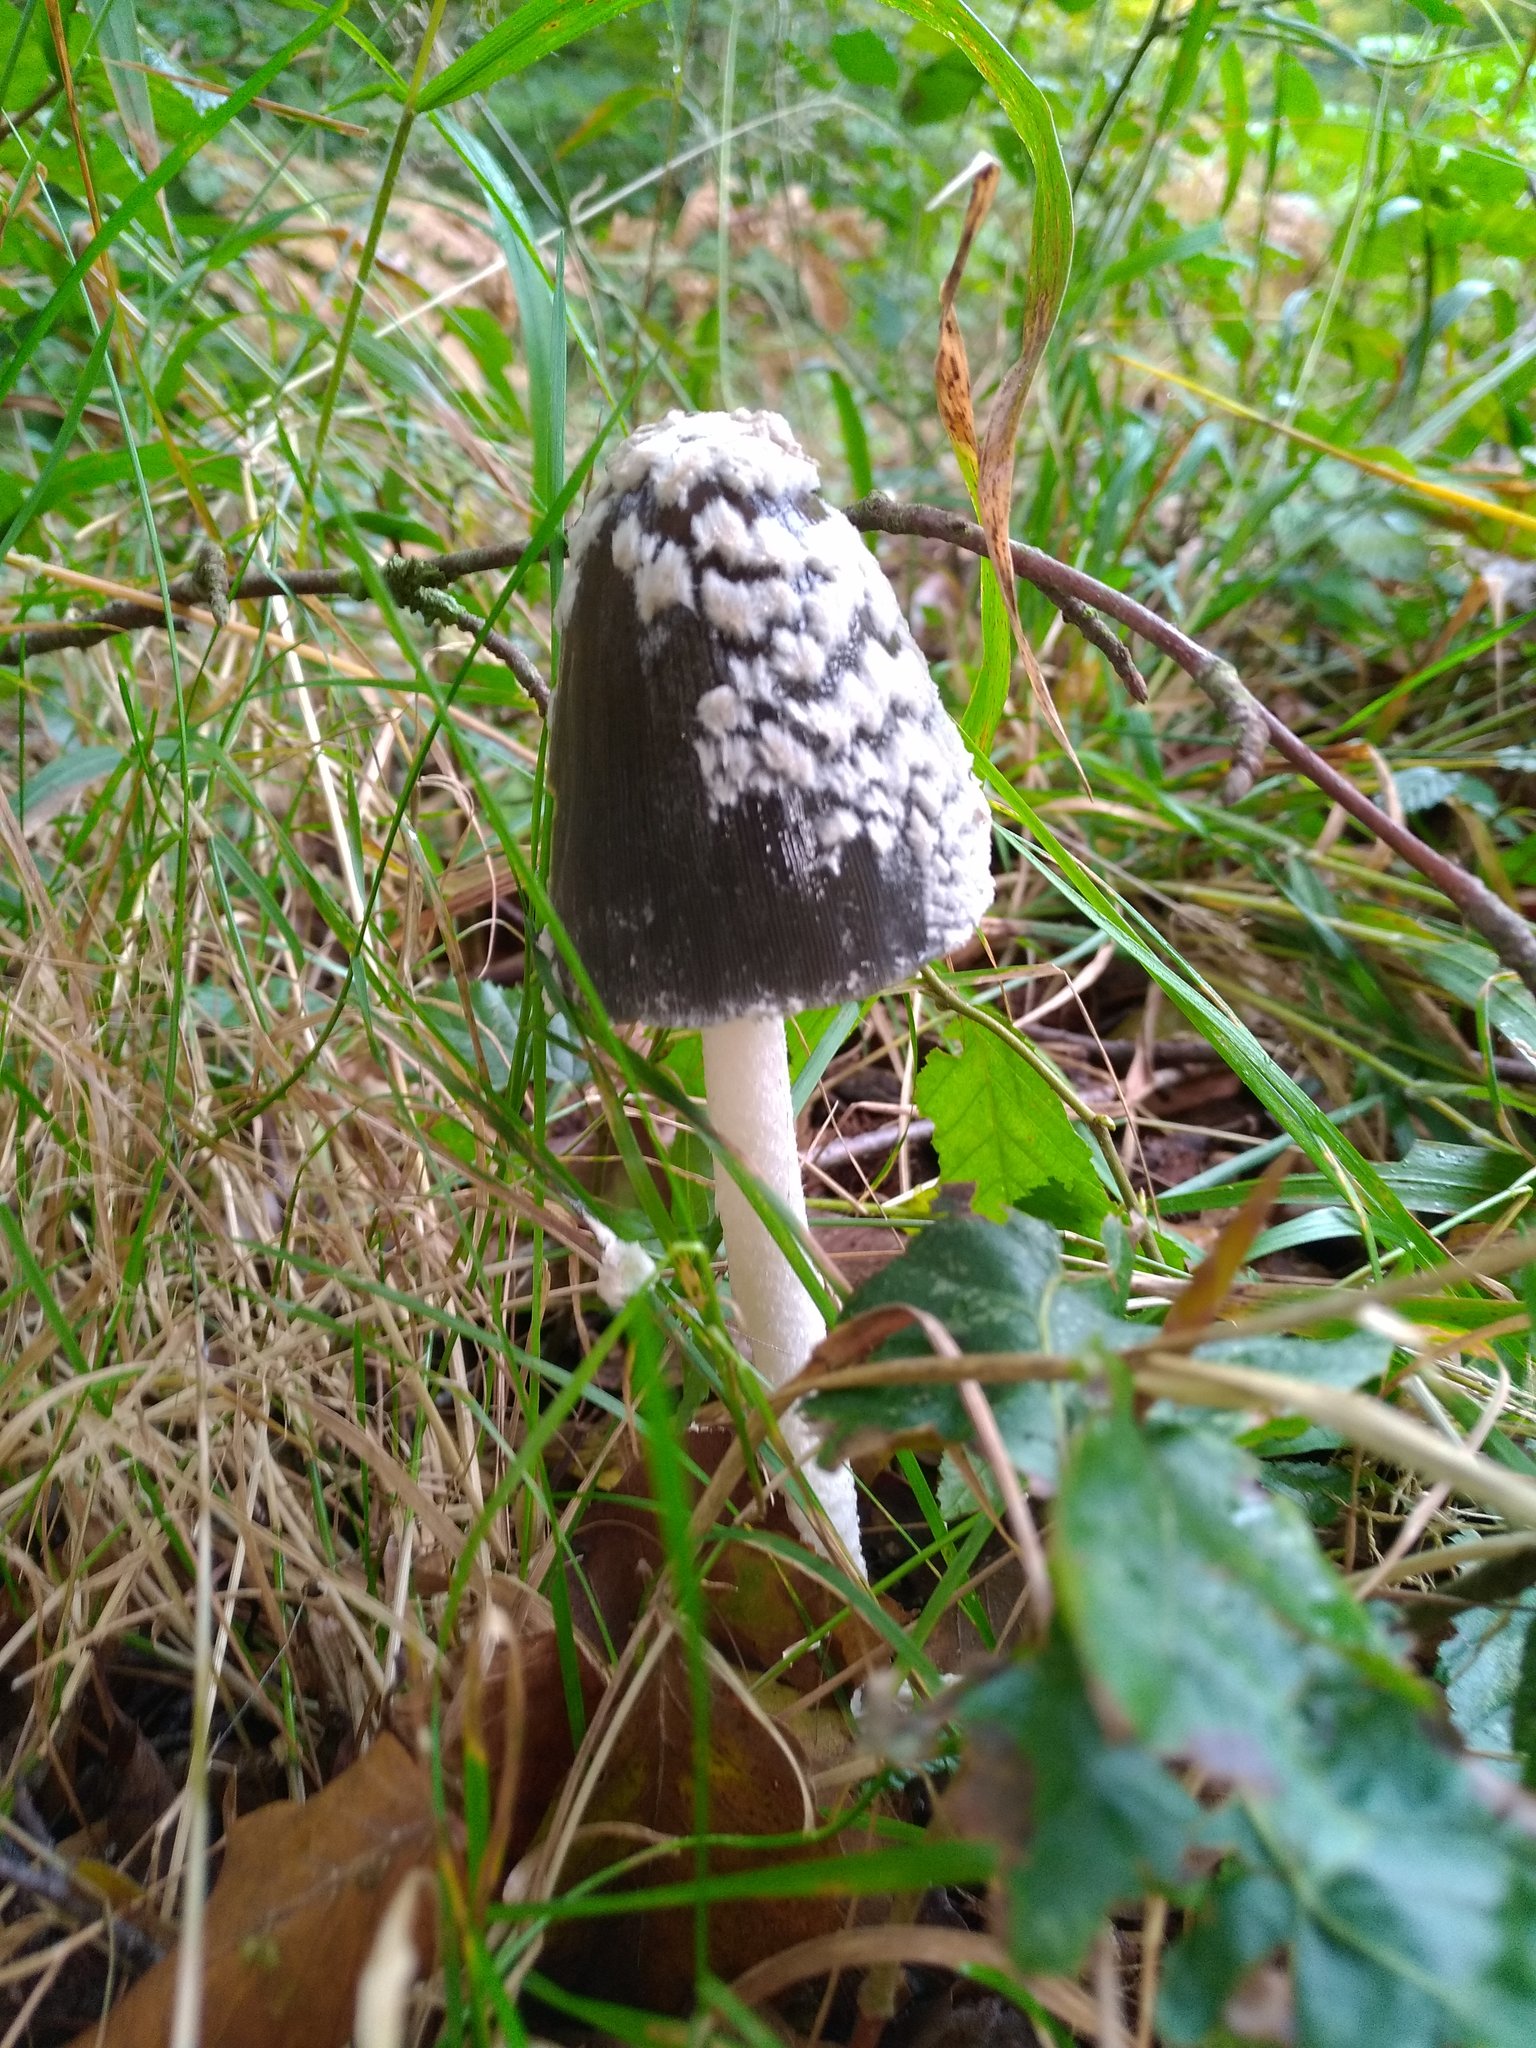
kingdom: Fungi
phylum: Basidiomycota
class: Agaricomycetes
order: Agaricales
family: Psathyrellaceae
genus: Coprinopsis
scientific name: Coprinopsis picacea
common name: Magpie inkcap
